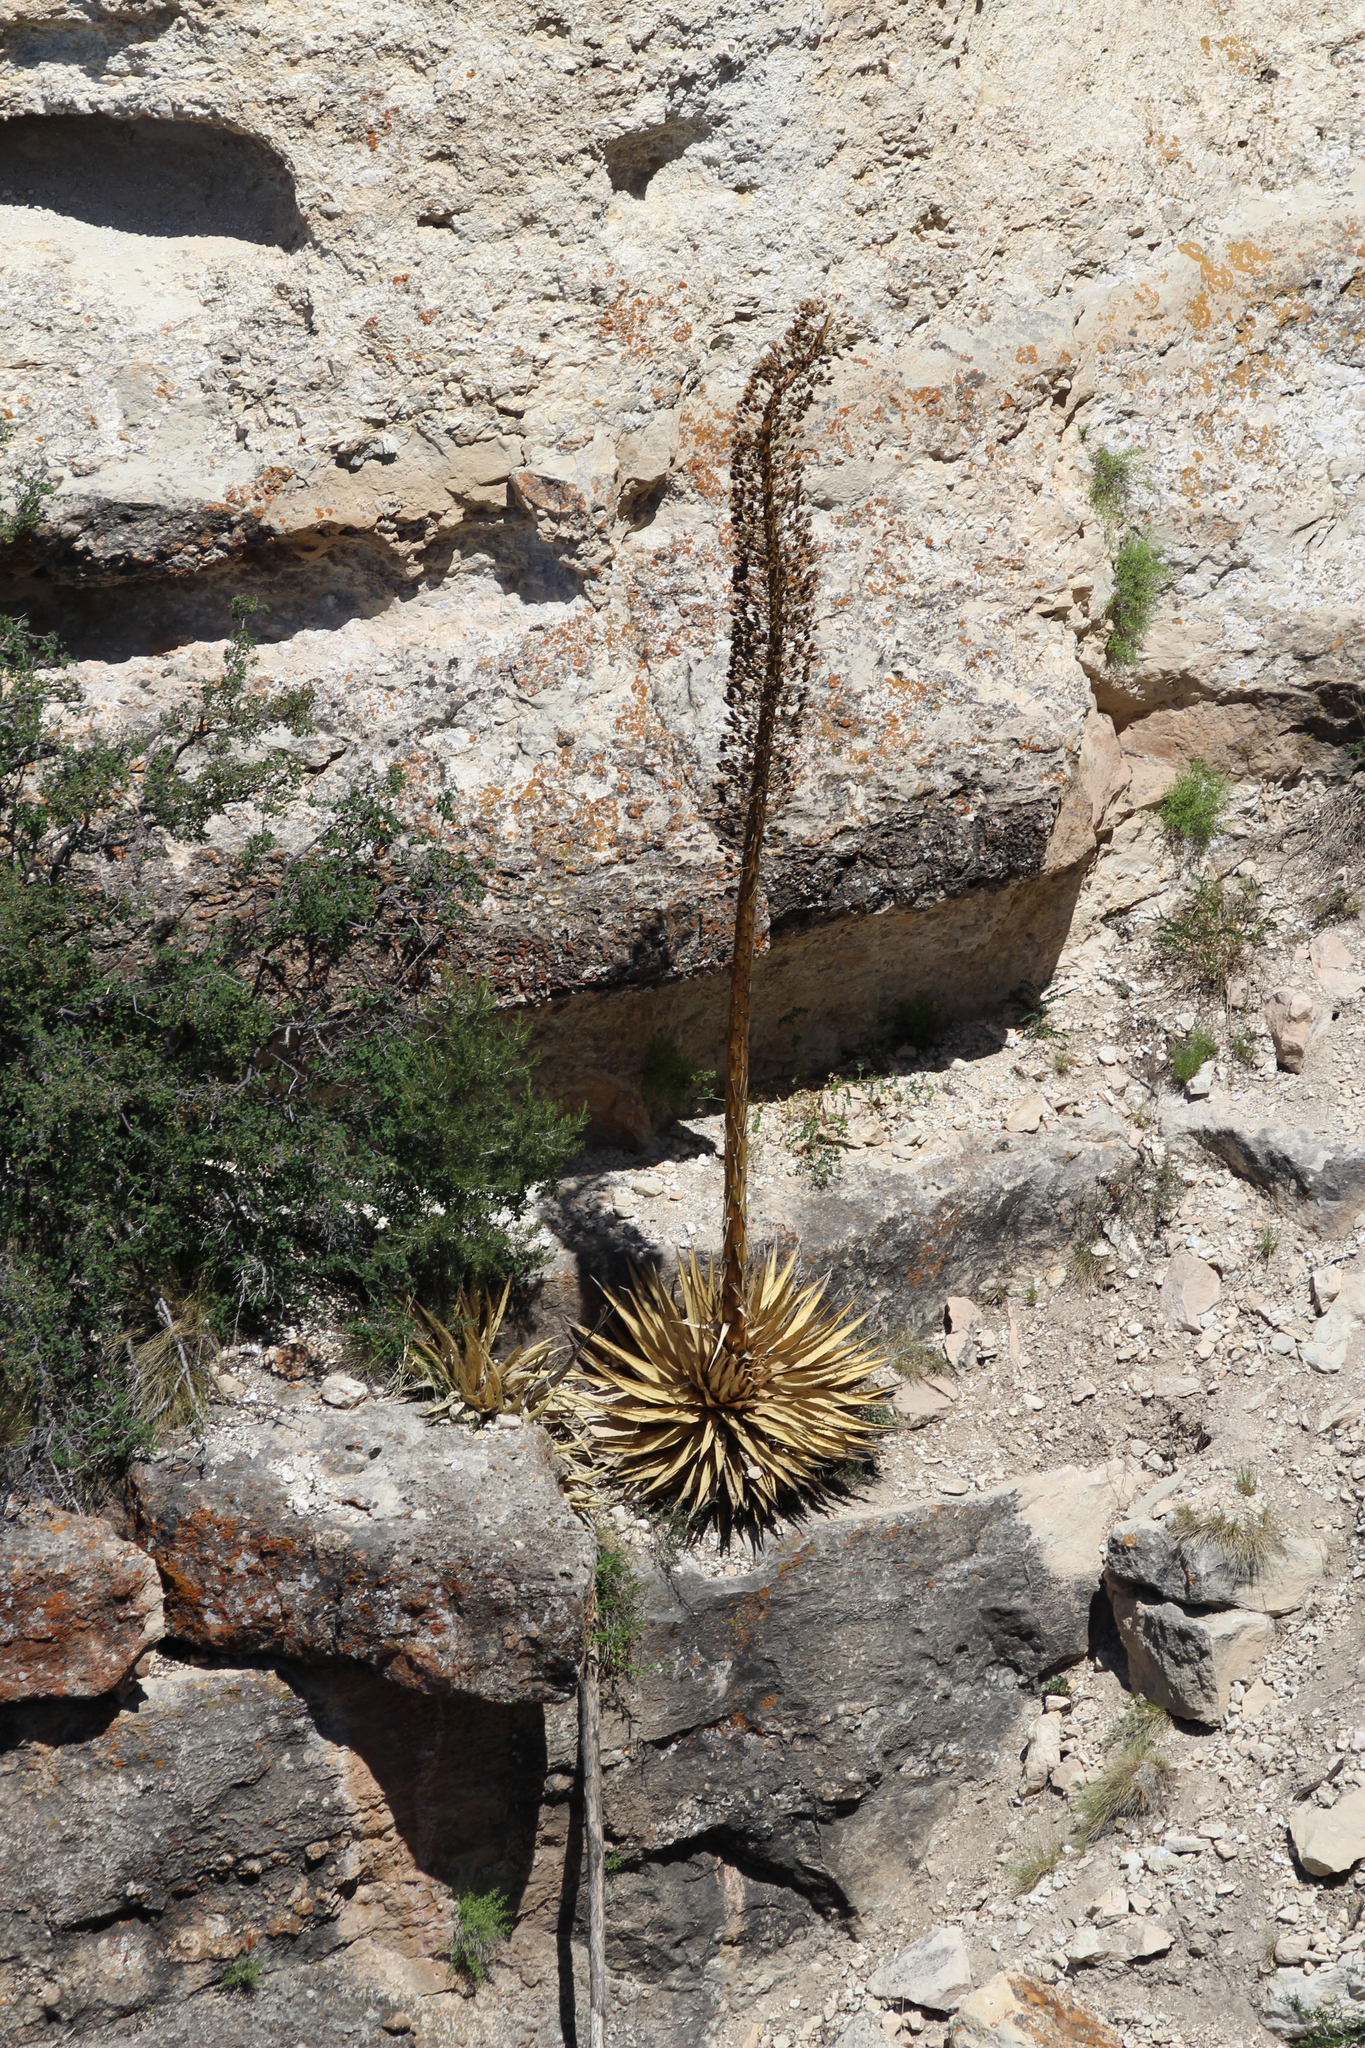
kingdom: Plantae
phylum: Tracheophyta
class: Liliopsida
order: Asparagales
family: Asparagaceae
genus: Agave
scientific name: Agave utahensis
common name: Utah agave
